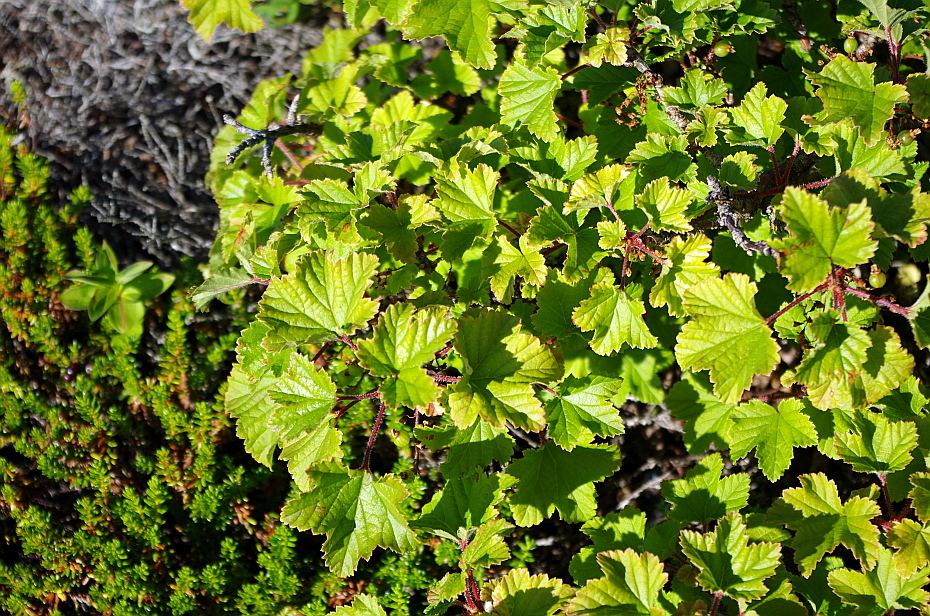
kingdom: Plantae
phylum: Tracheophyta
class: Magnoliopsida
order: Saxifragales
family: Grossulariaceae
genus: Ribes
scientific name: Ribes spicatum
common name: Downy currant
